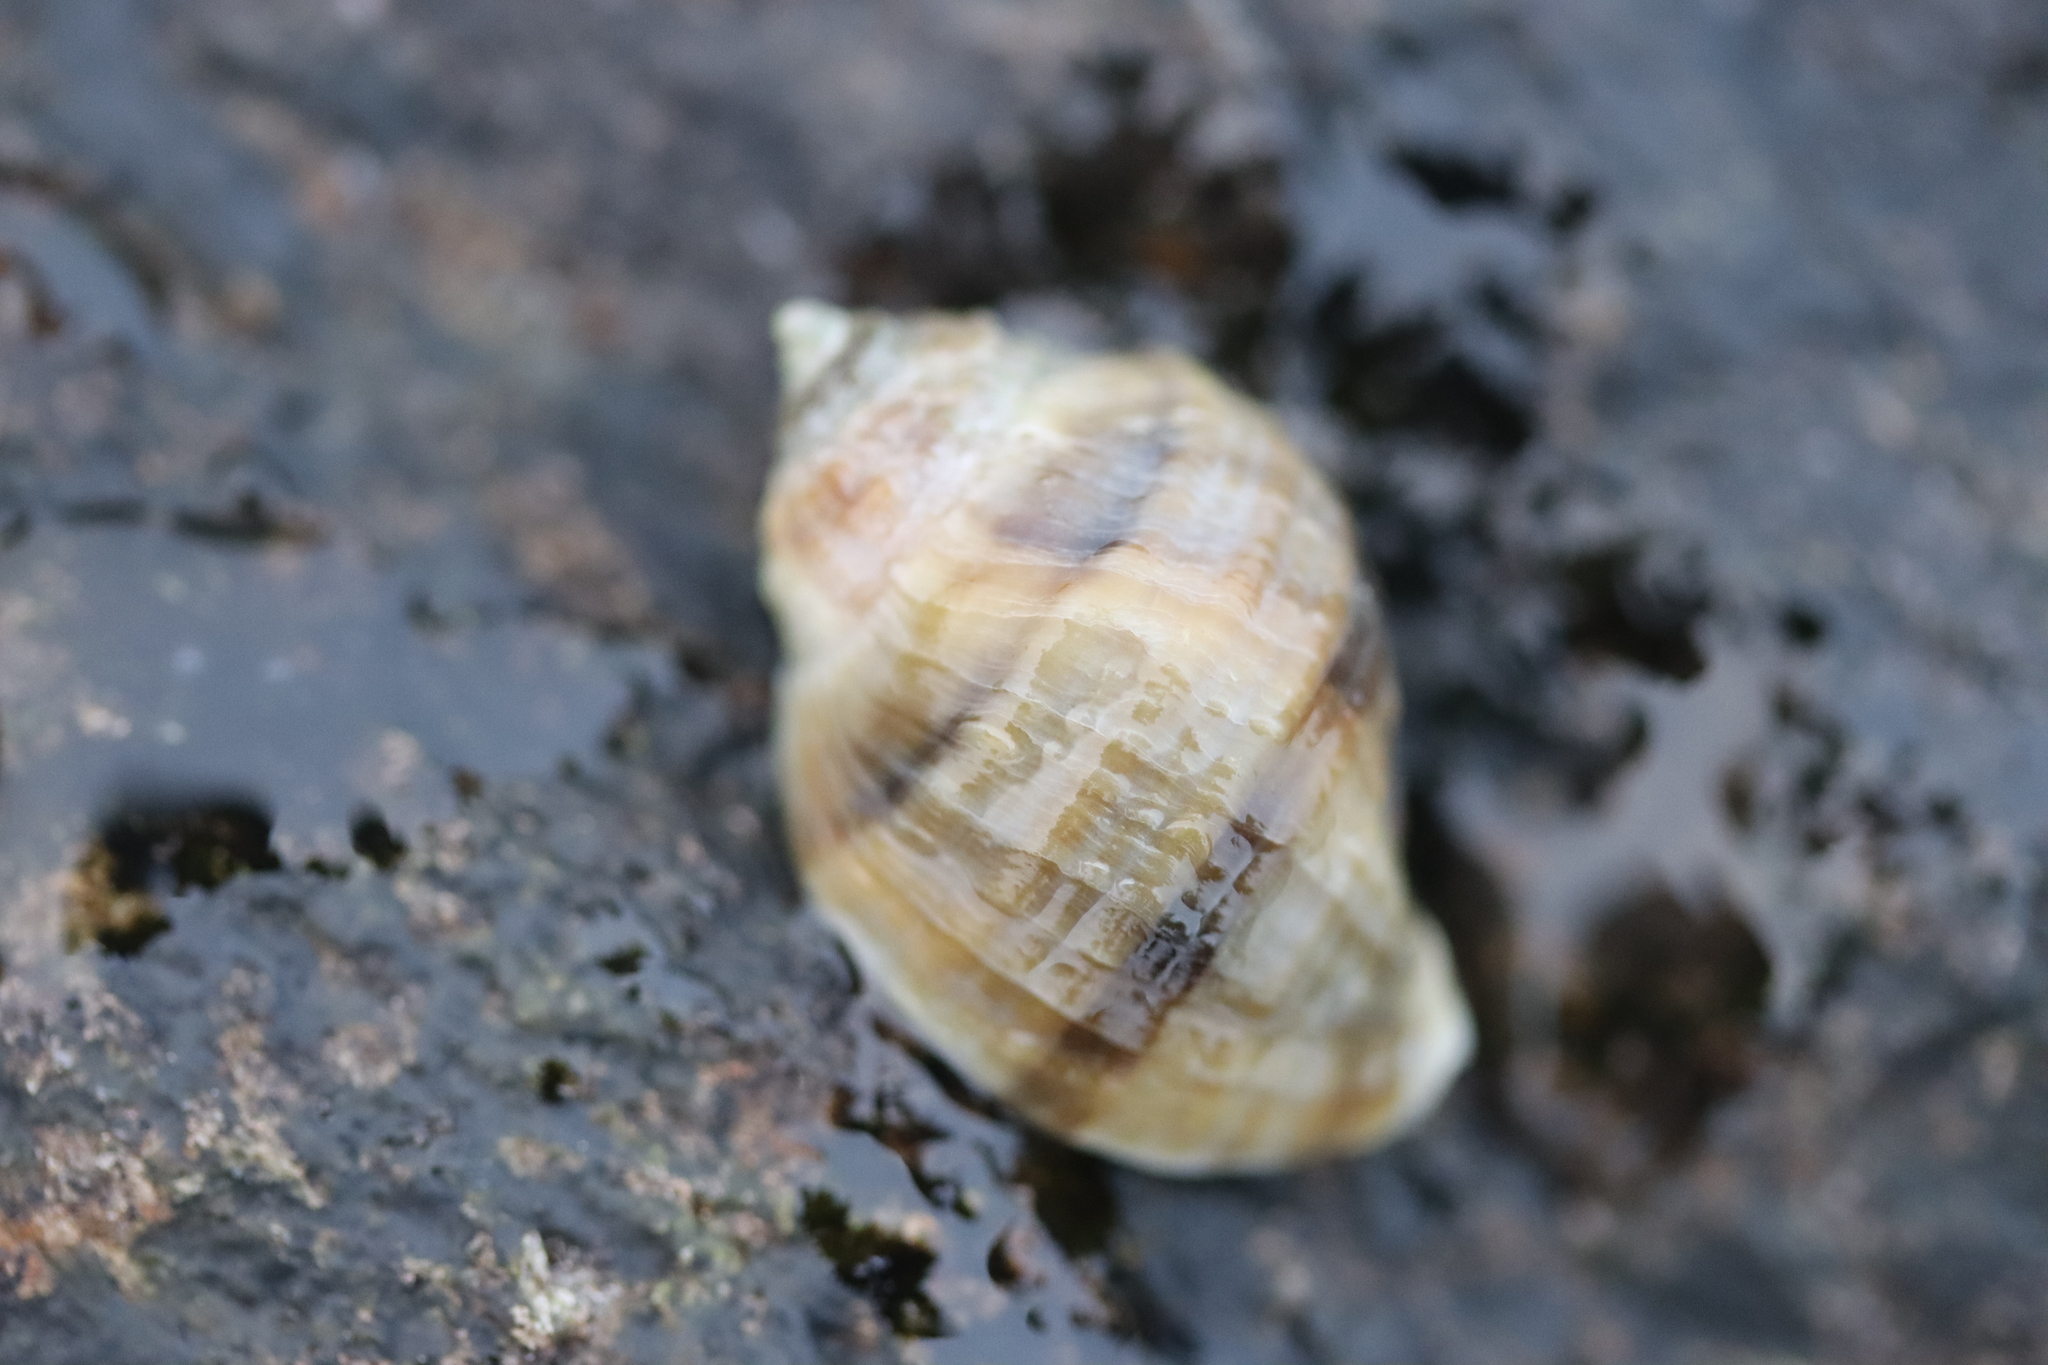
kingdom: Animalia
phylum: Mollusca
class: Gastropoda
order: Neogastropoda
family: Muricidae
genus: Nucella
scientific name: Nucella lapillus
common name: Dog whelk
